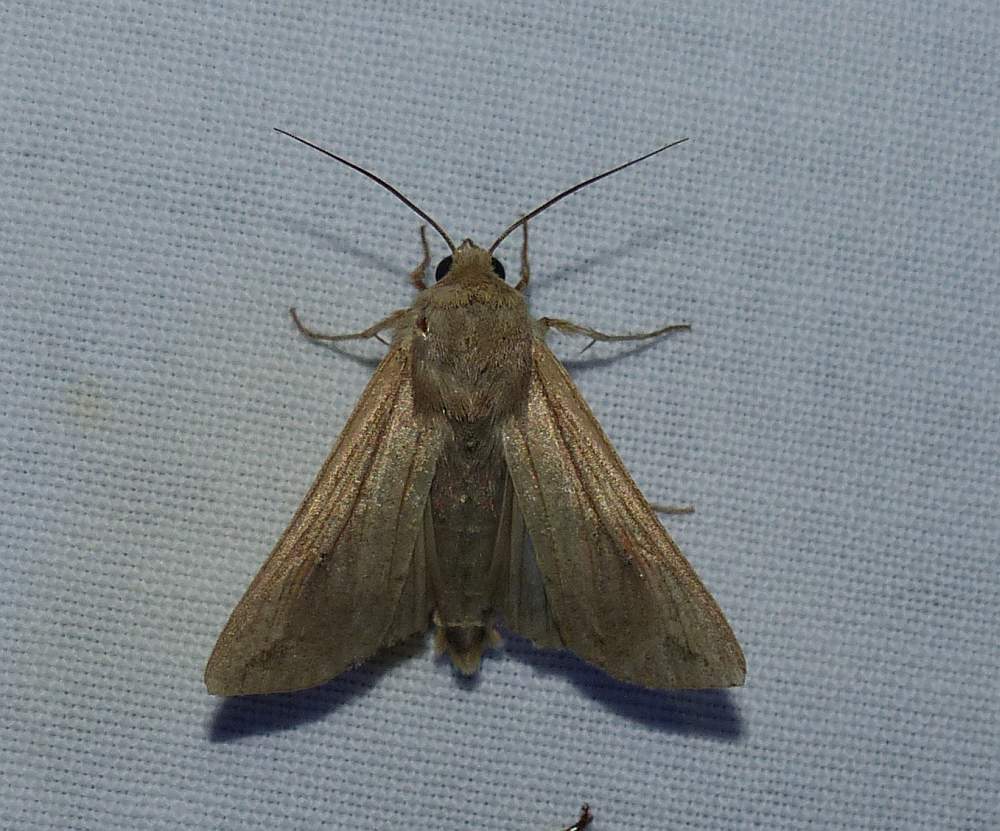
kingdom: Animalia
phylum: Arthropoda
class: Insecta
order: Lepidoptera
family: Noctuidae
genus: Mythimna
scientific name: Mythimna unipuncta
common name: White-speck
